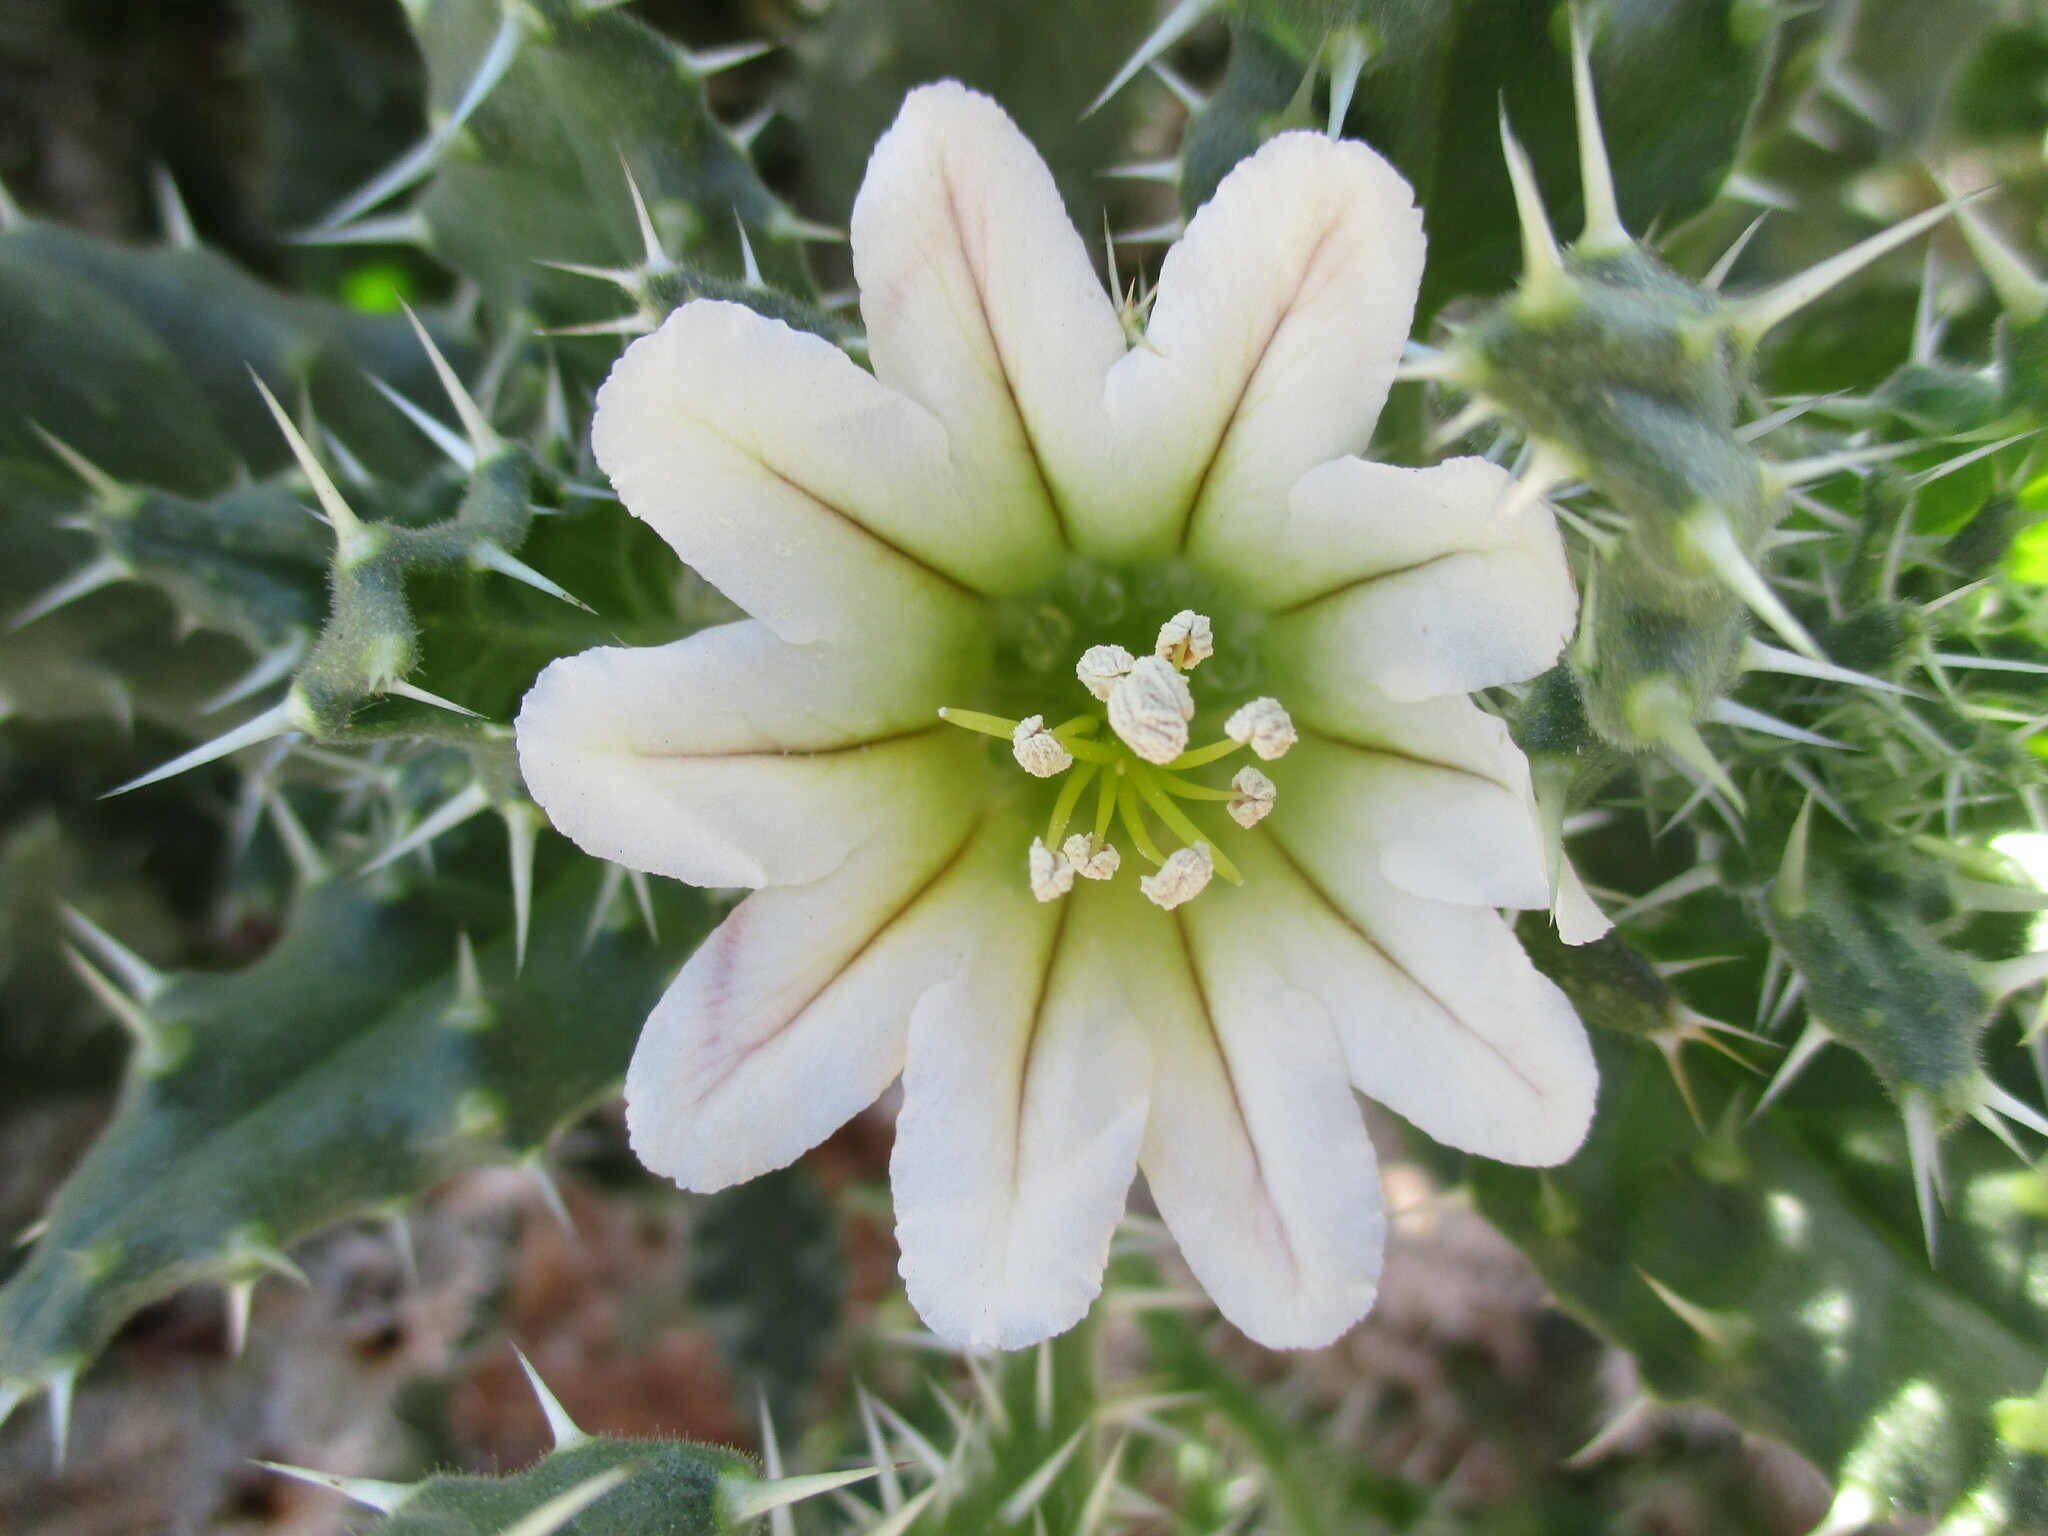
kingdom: Plantae
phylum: Tracheophyta
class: Magnoliopsida
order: Boraginales
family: Boraginaceae
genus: Codon
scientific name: Codon royenii
